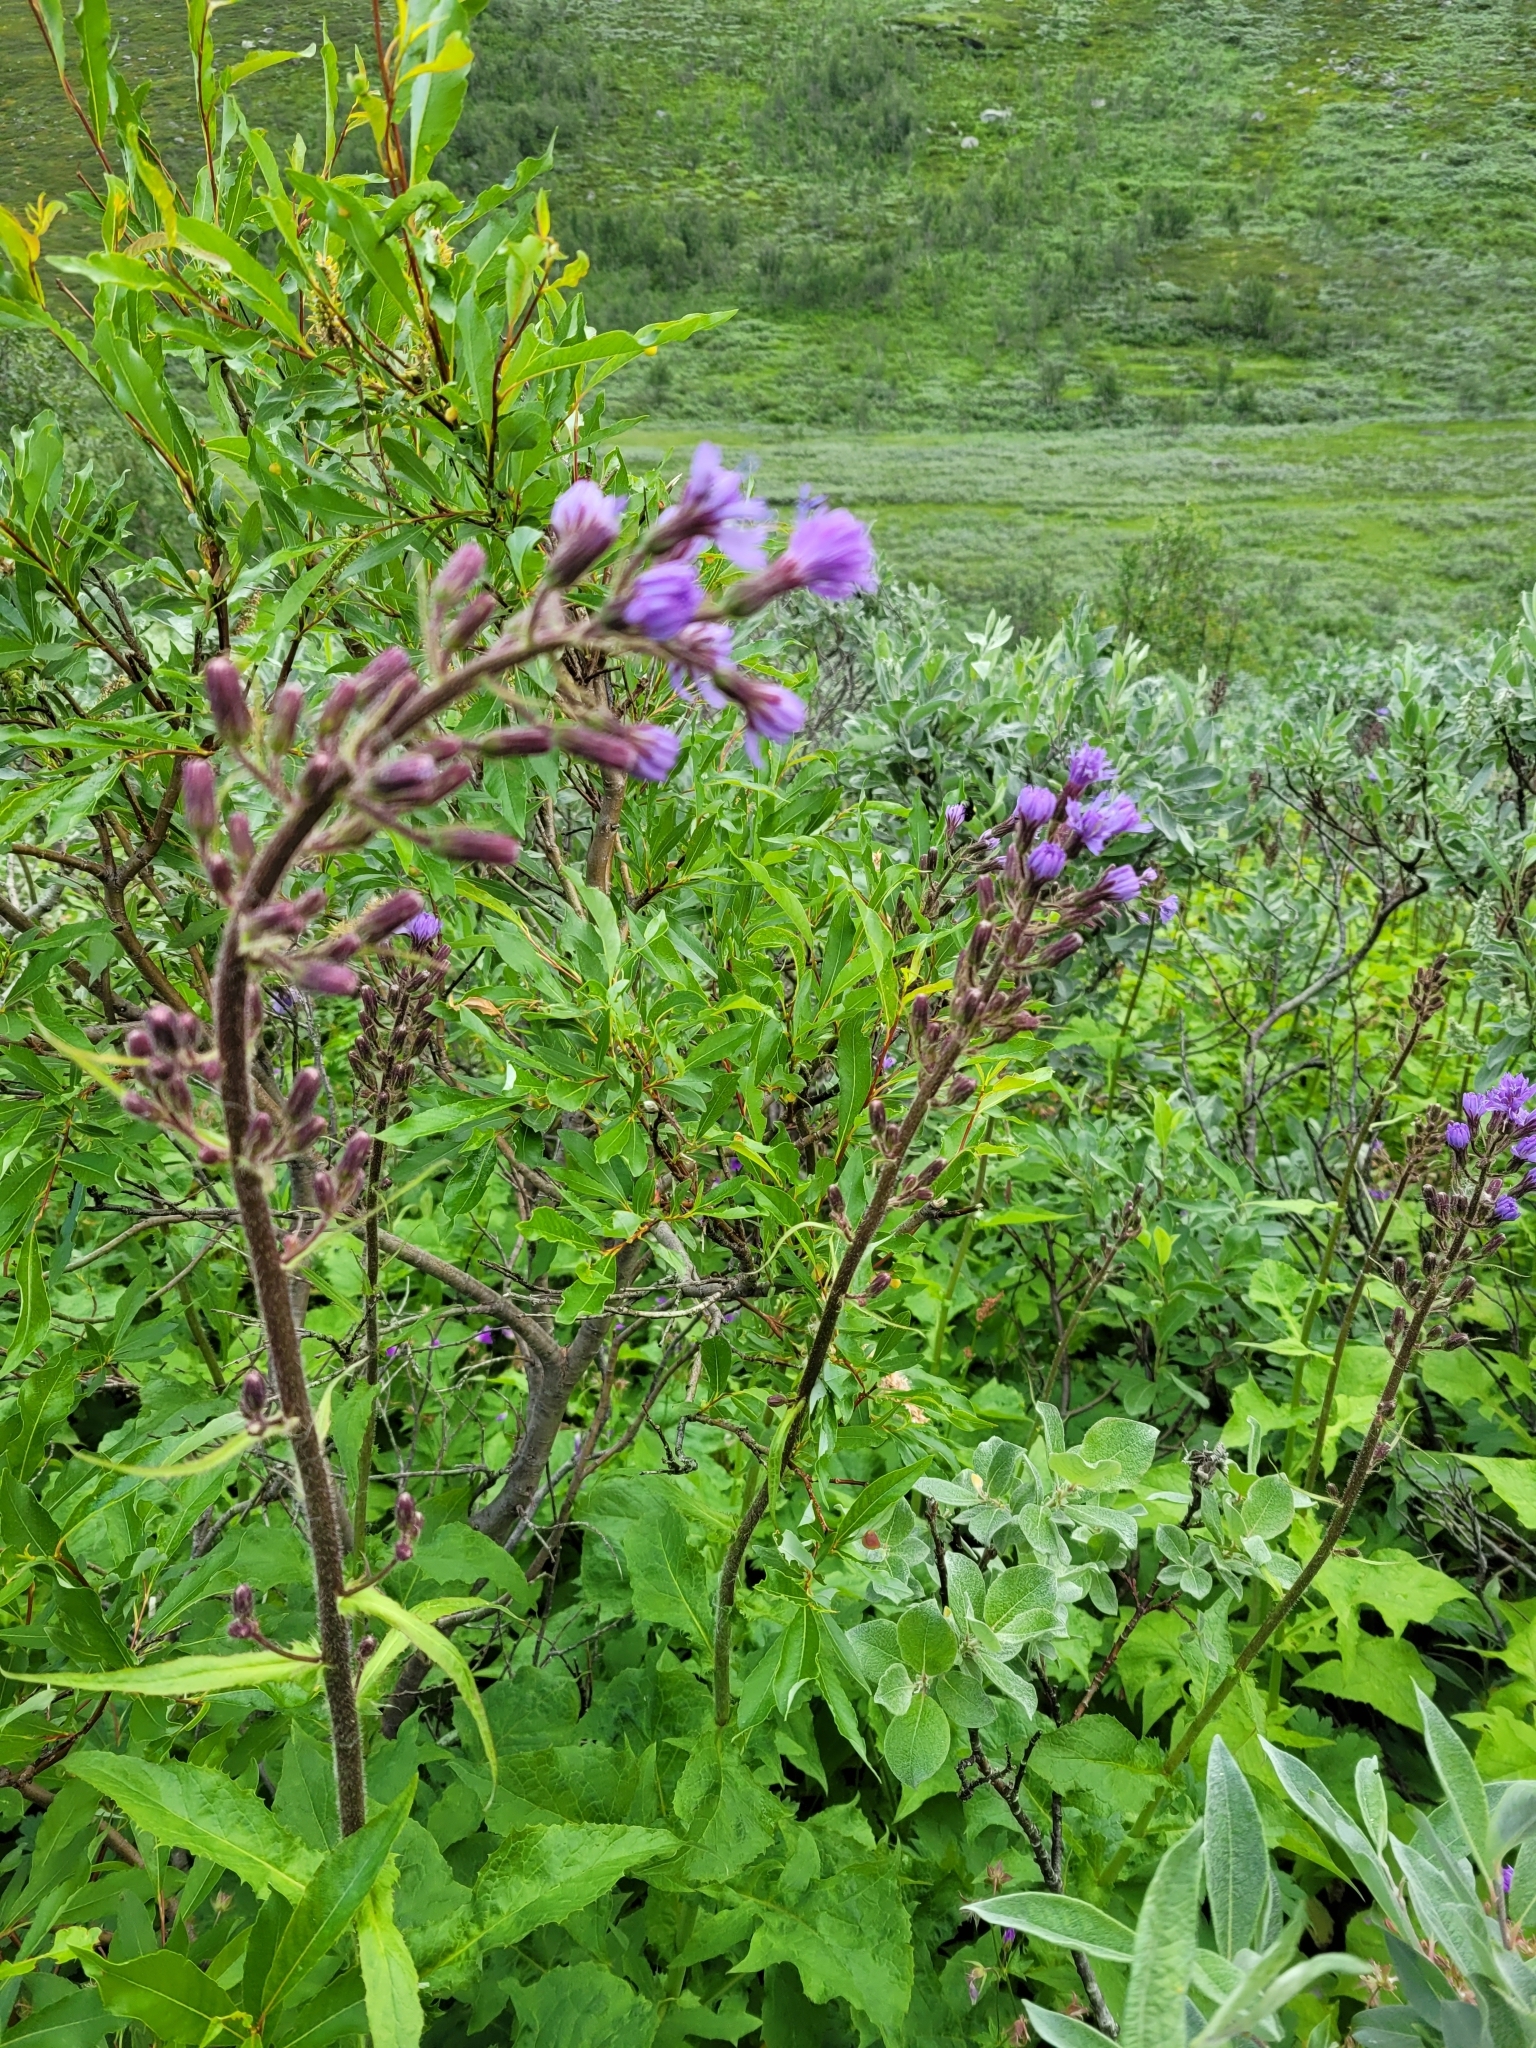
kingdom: Plantae
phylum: Tracheophyta
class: Magnoliopsida
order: Asterales
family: Asteraceae
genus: Cicerbita
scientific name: Cicerbita alpina
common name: Alpine blue-sow-thistle
